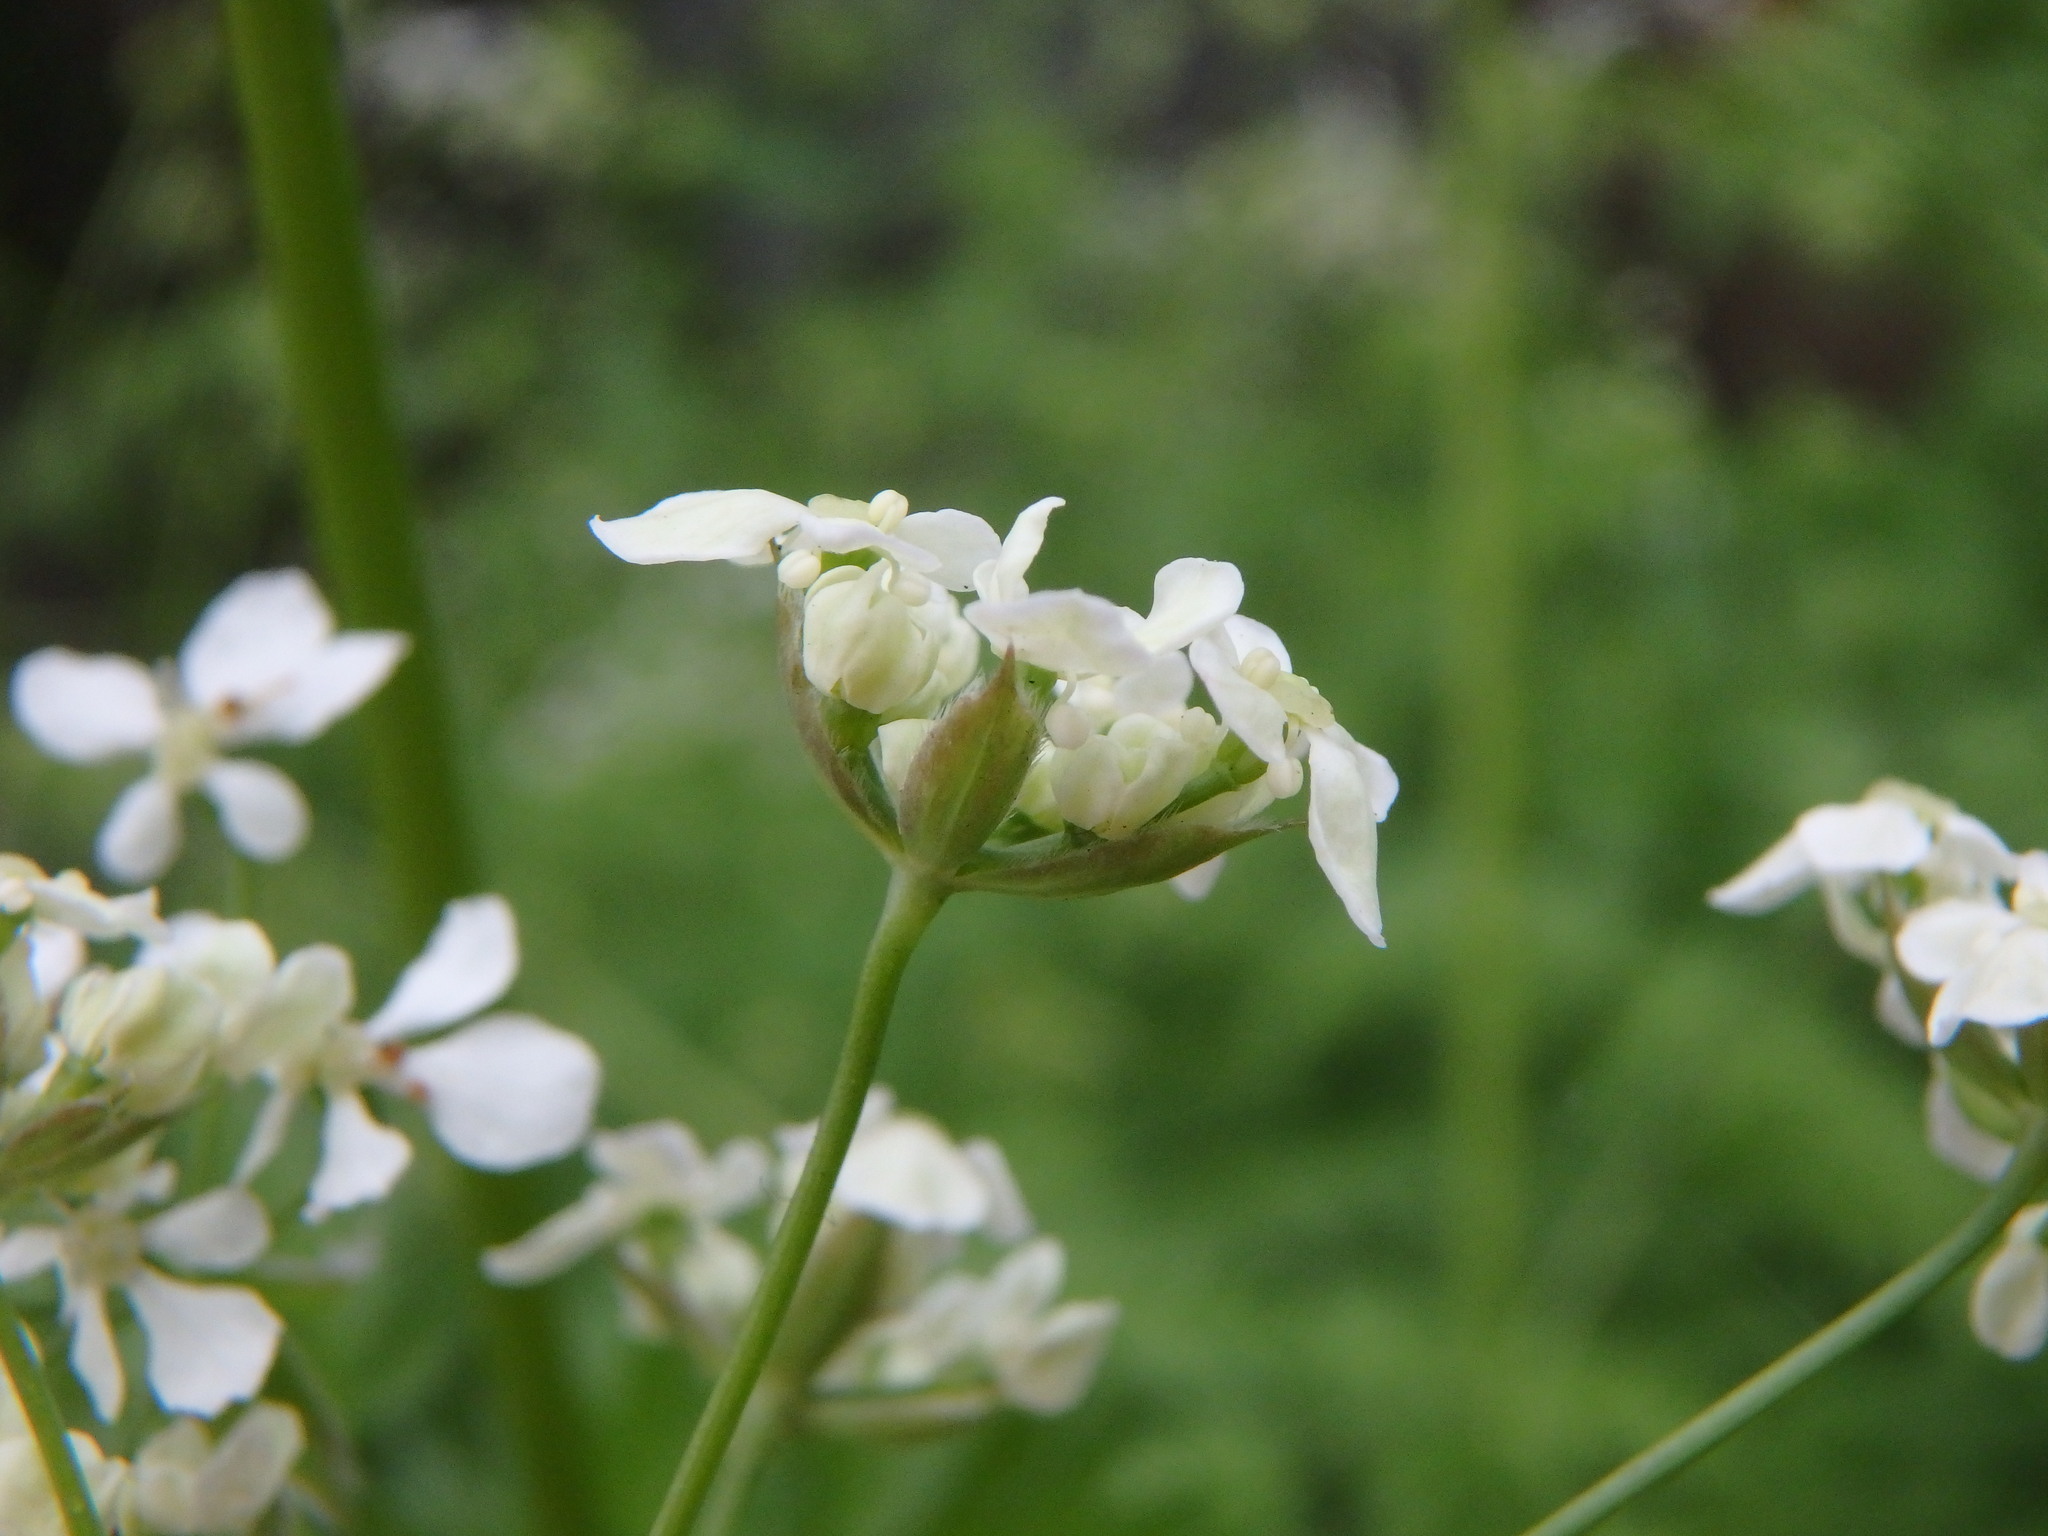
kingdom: Plantae
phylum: Tracheophyta
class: Magnoliopsida
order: Apiales
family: Apiaceae
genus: Anthriscus
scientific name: Anthriscus sylvestris
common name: Cow parsley
